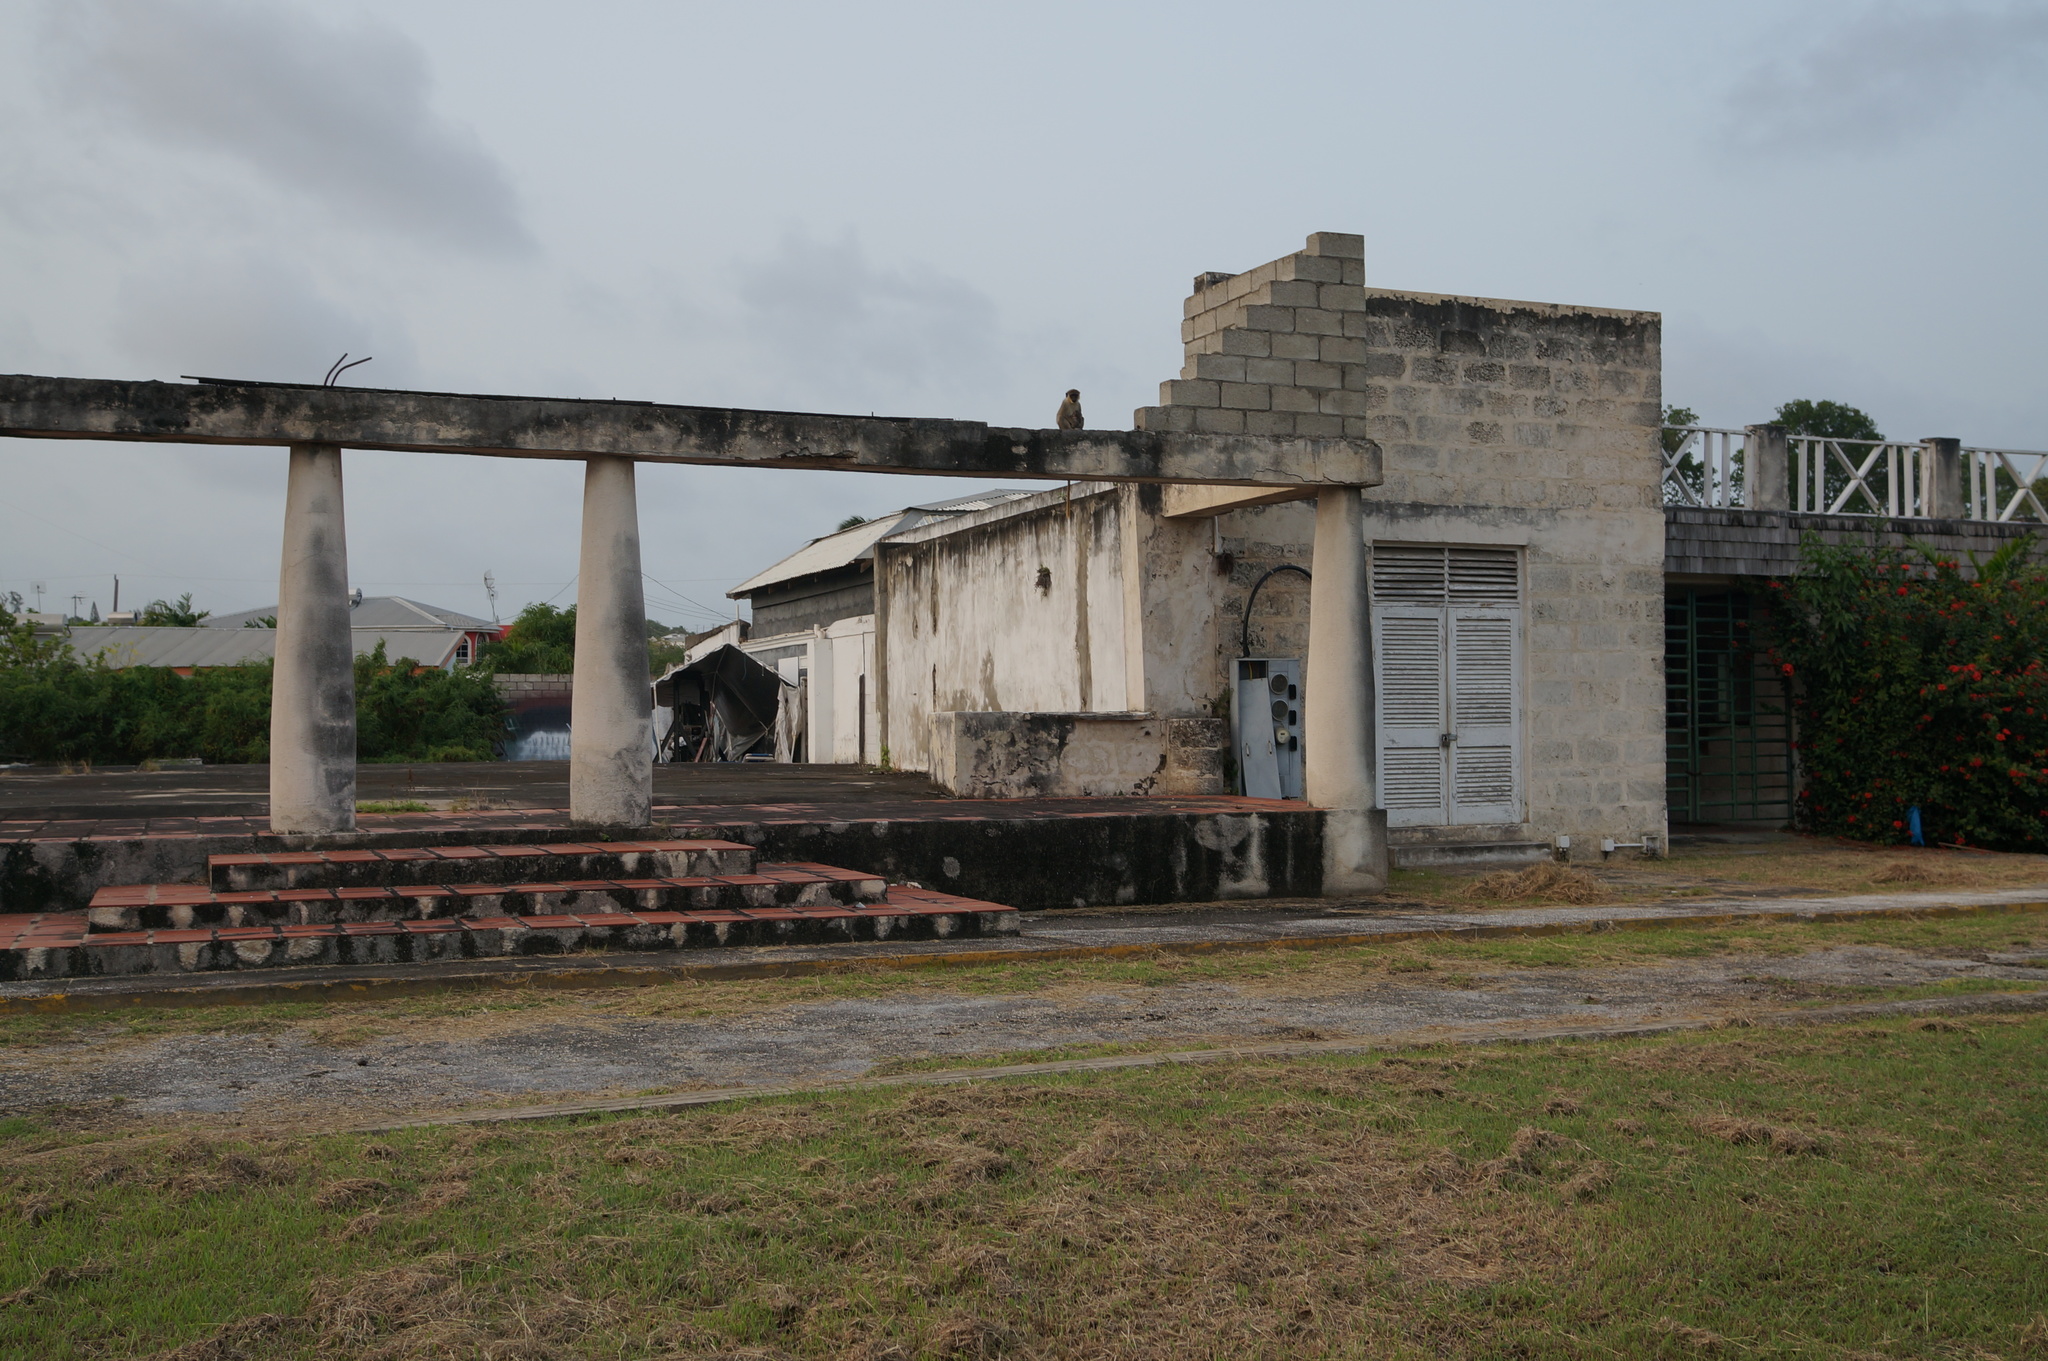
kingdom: Animalia
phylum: Chordata
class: Mammalia
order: Primates
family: Cercopithecidae
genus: Chlorocebus
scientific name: Chlorocebus sabaeus
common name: Green monkey
